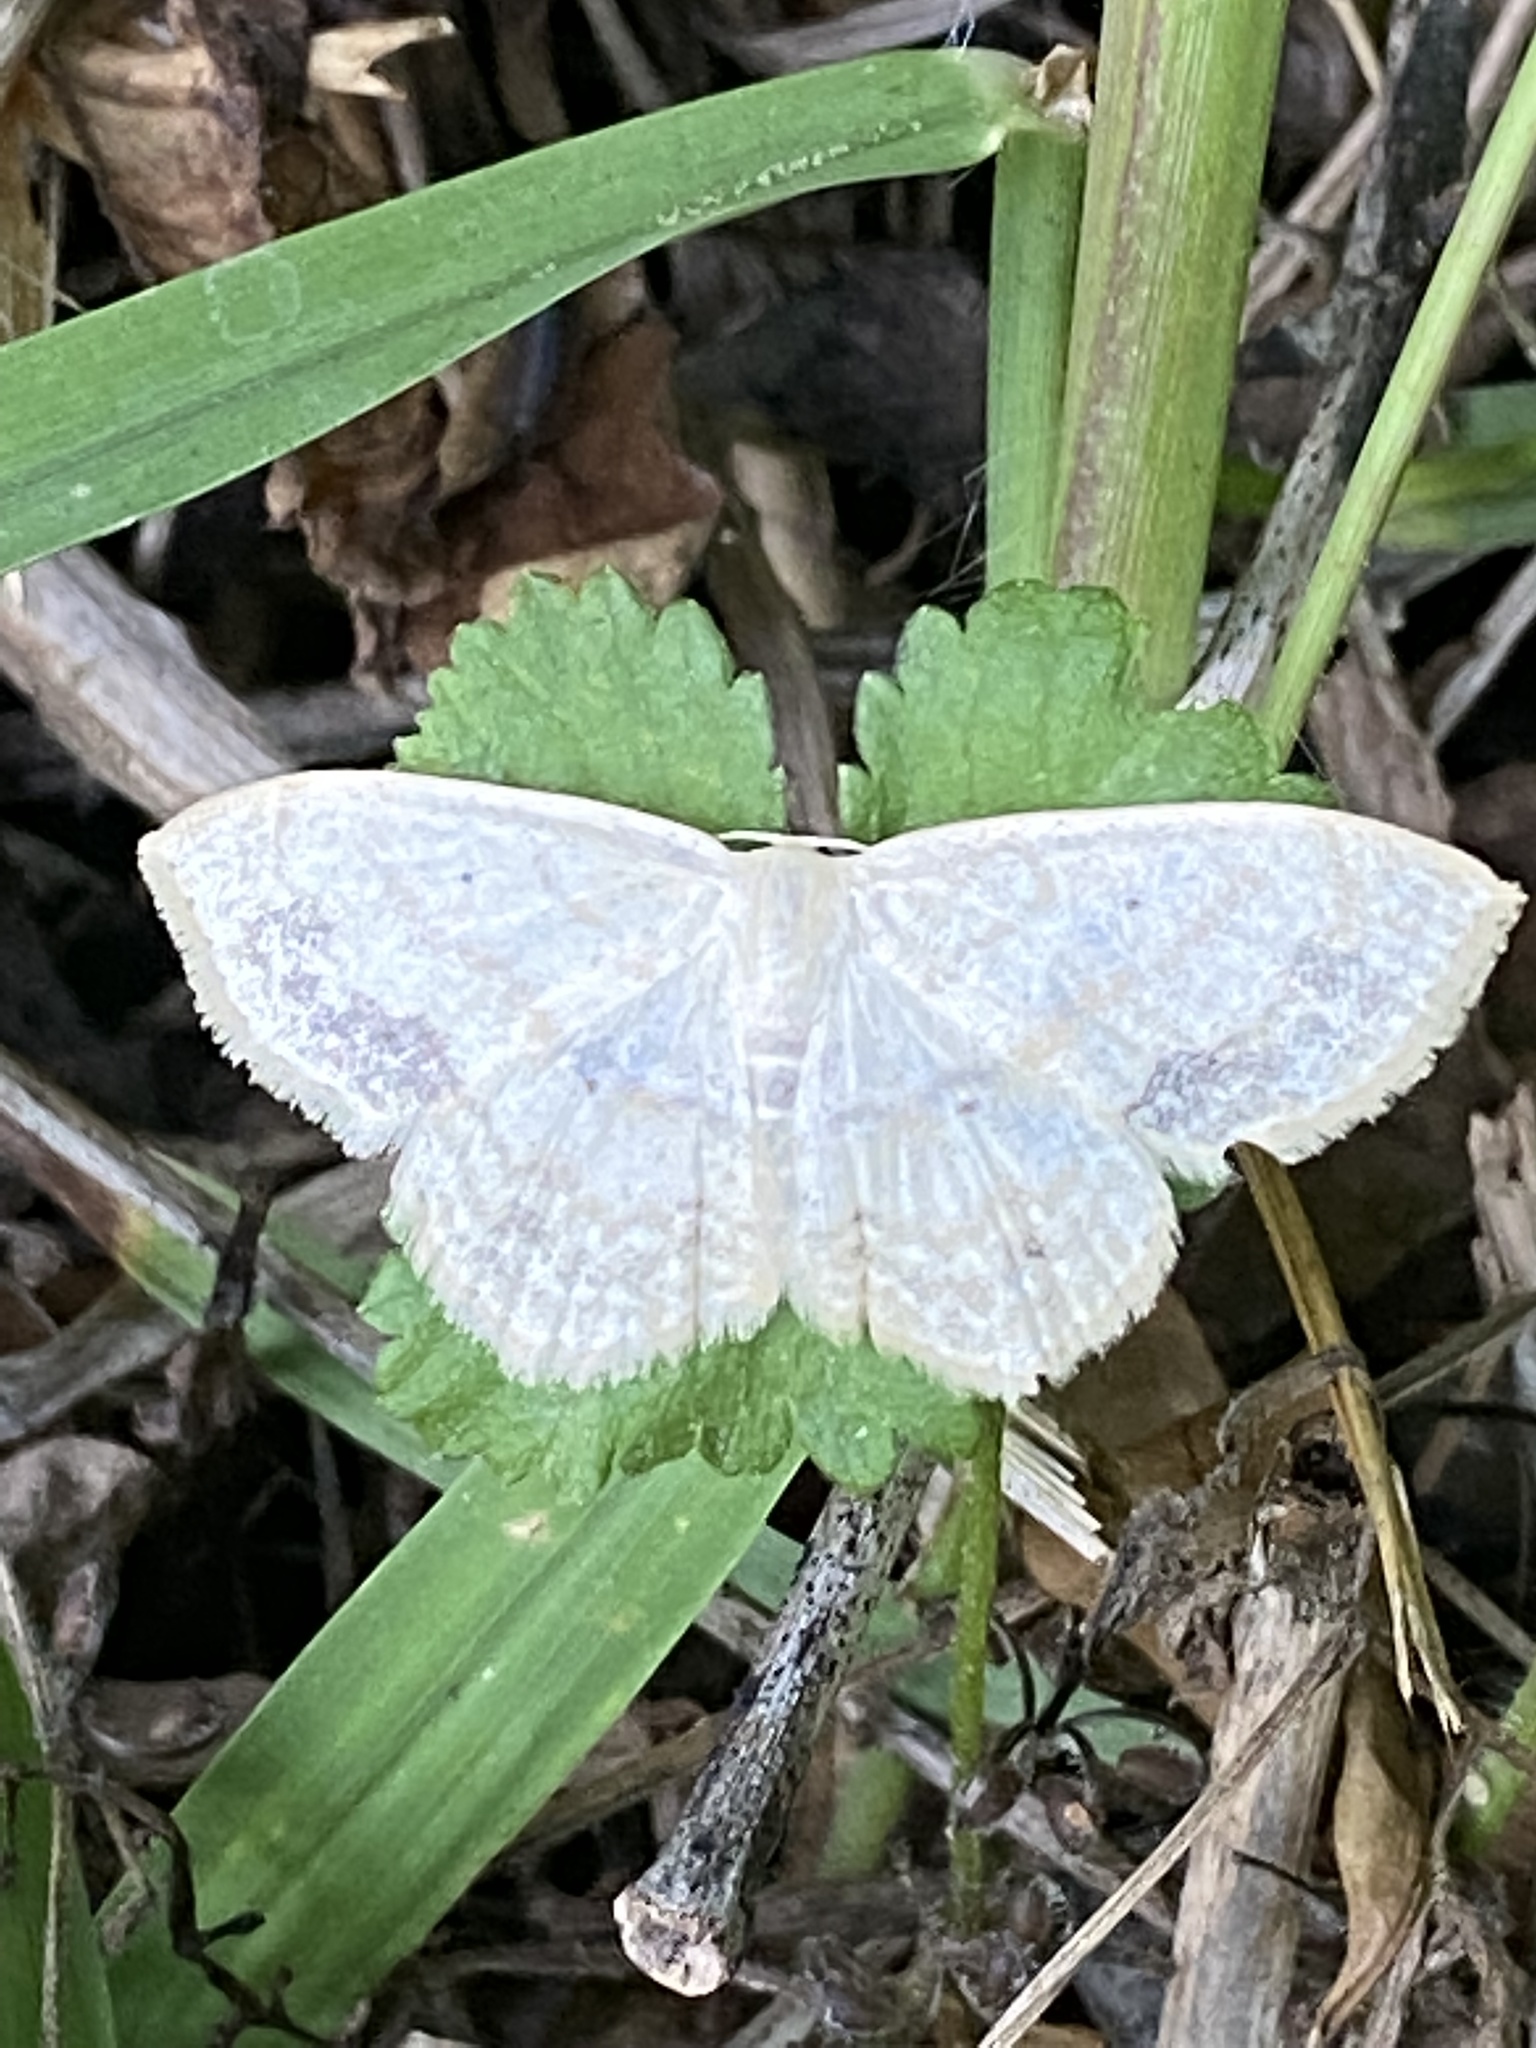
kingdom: Animalia
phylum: Arthropoda
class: Insecta
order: Lepidoptera
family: Geometridae
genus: Scopula
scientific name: Scopula limboundata
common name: Large lace border
